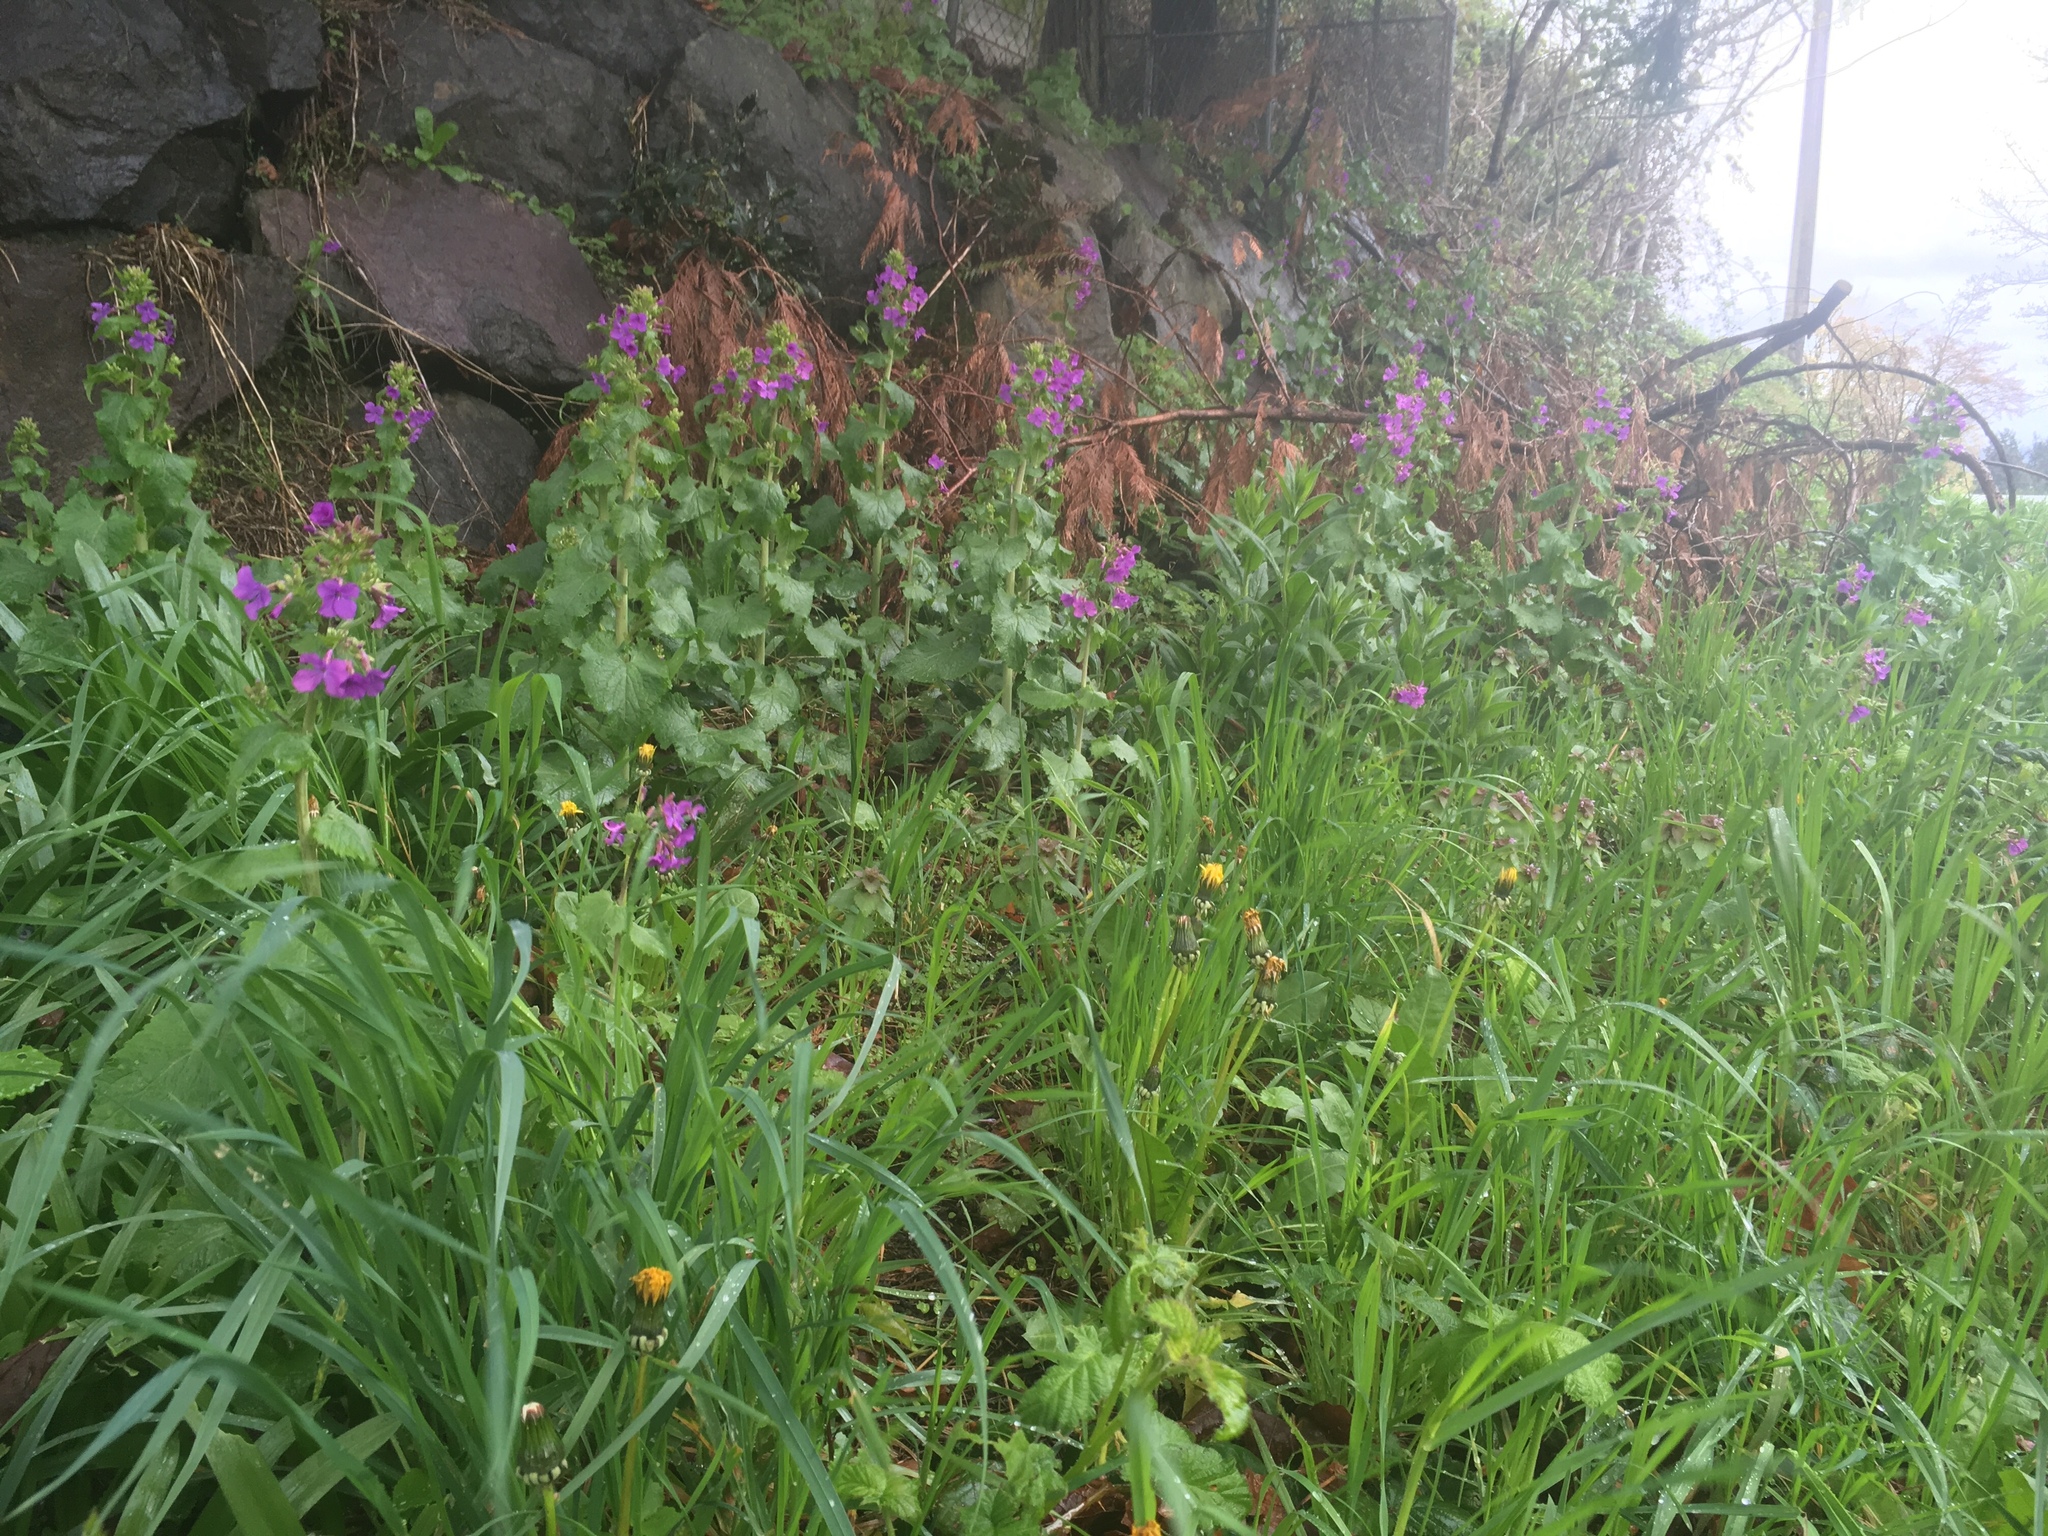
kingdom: Plantae
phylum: Tracheophyta
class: Magnoliopsida
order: Brassicales
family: Brassicaceae
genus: Lunaria
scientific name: Lunaria annua
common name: Honesty
